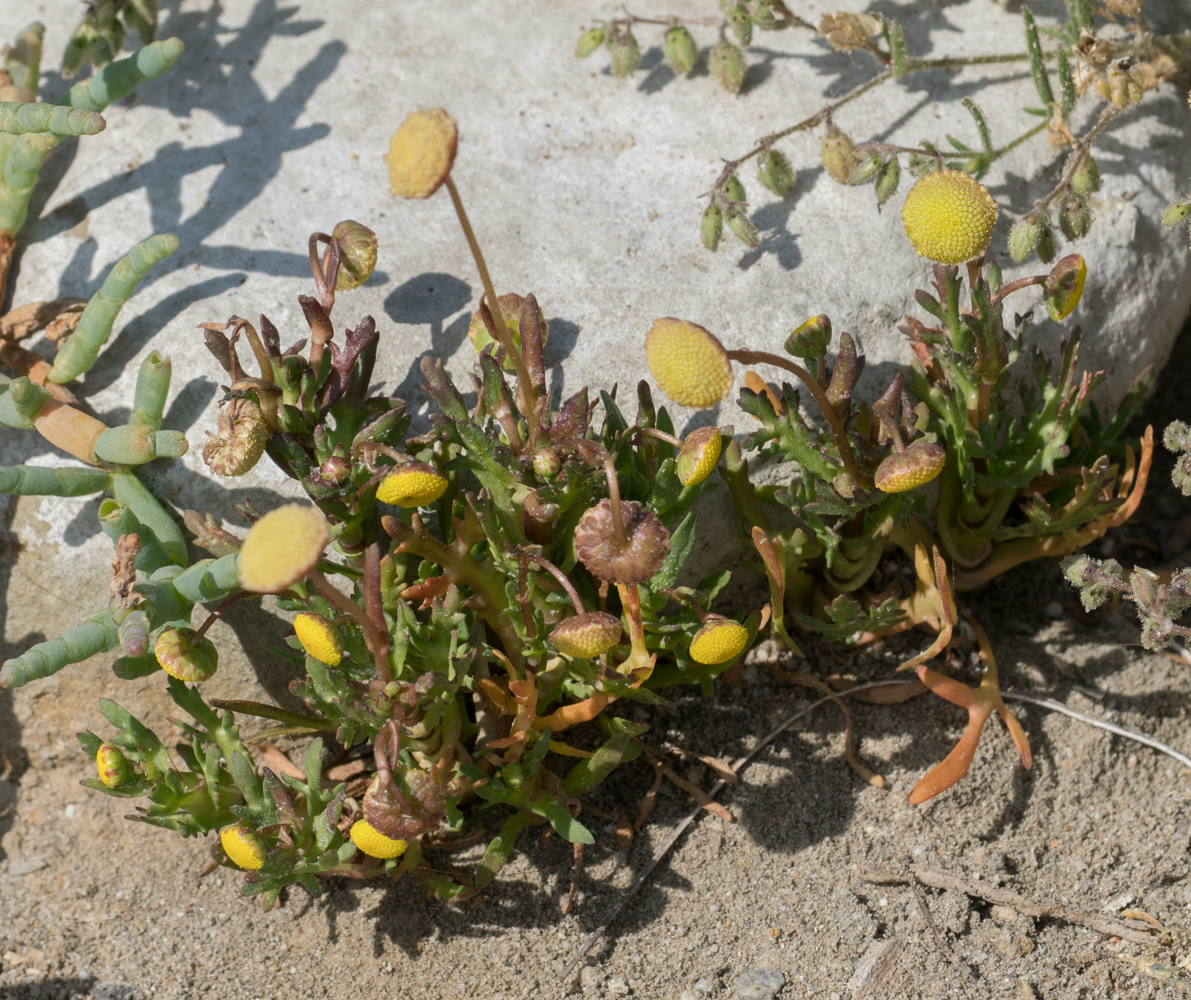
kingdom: Plantae
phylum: Tracheophyta
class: Magnoliopsida
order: Asterales
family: Asteraceae
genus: Cotula
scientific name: Cotula coronopifolia
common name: Buttonweed
